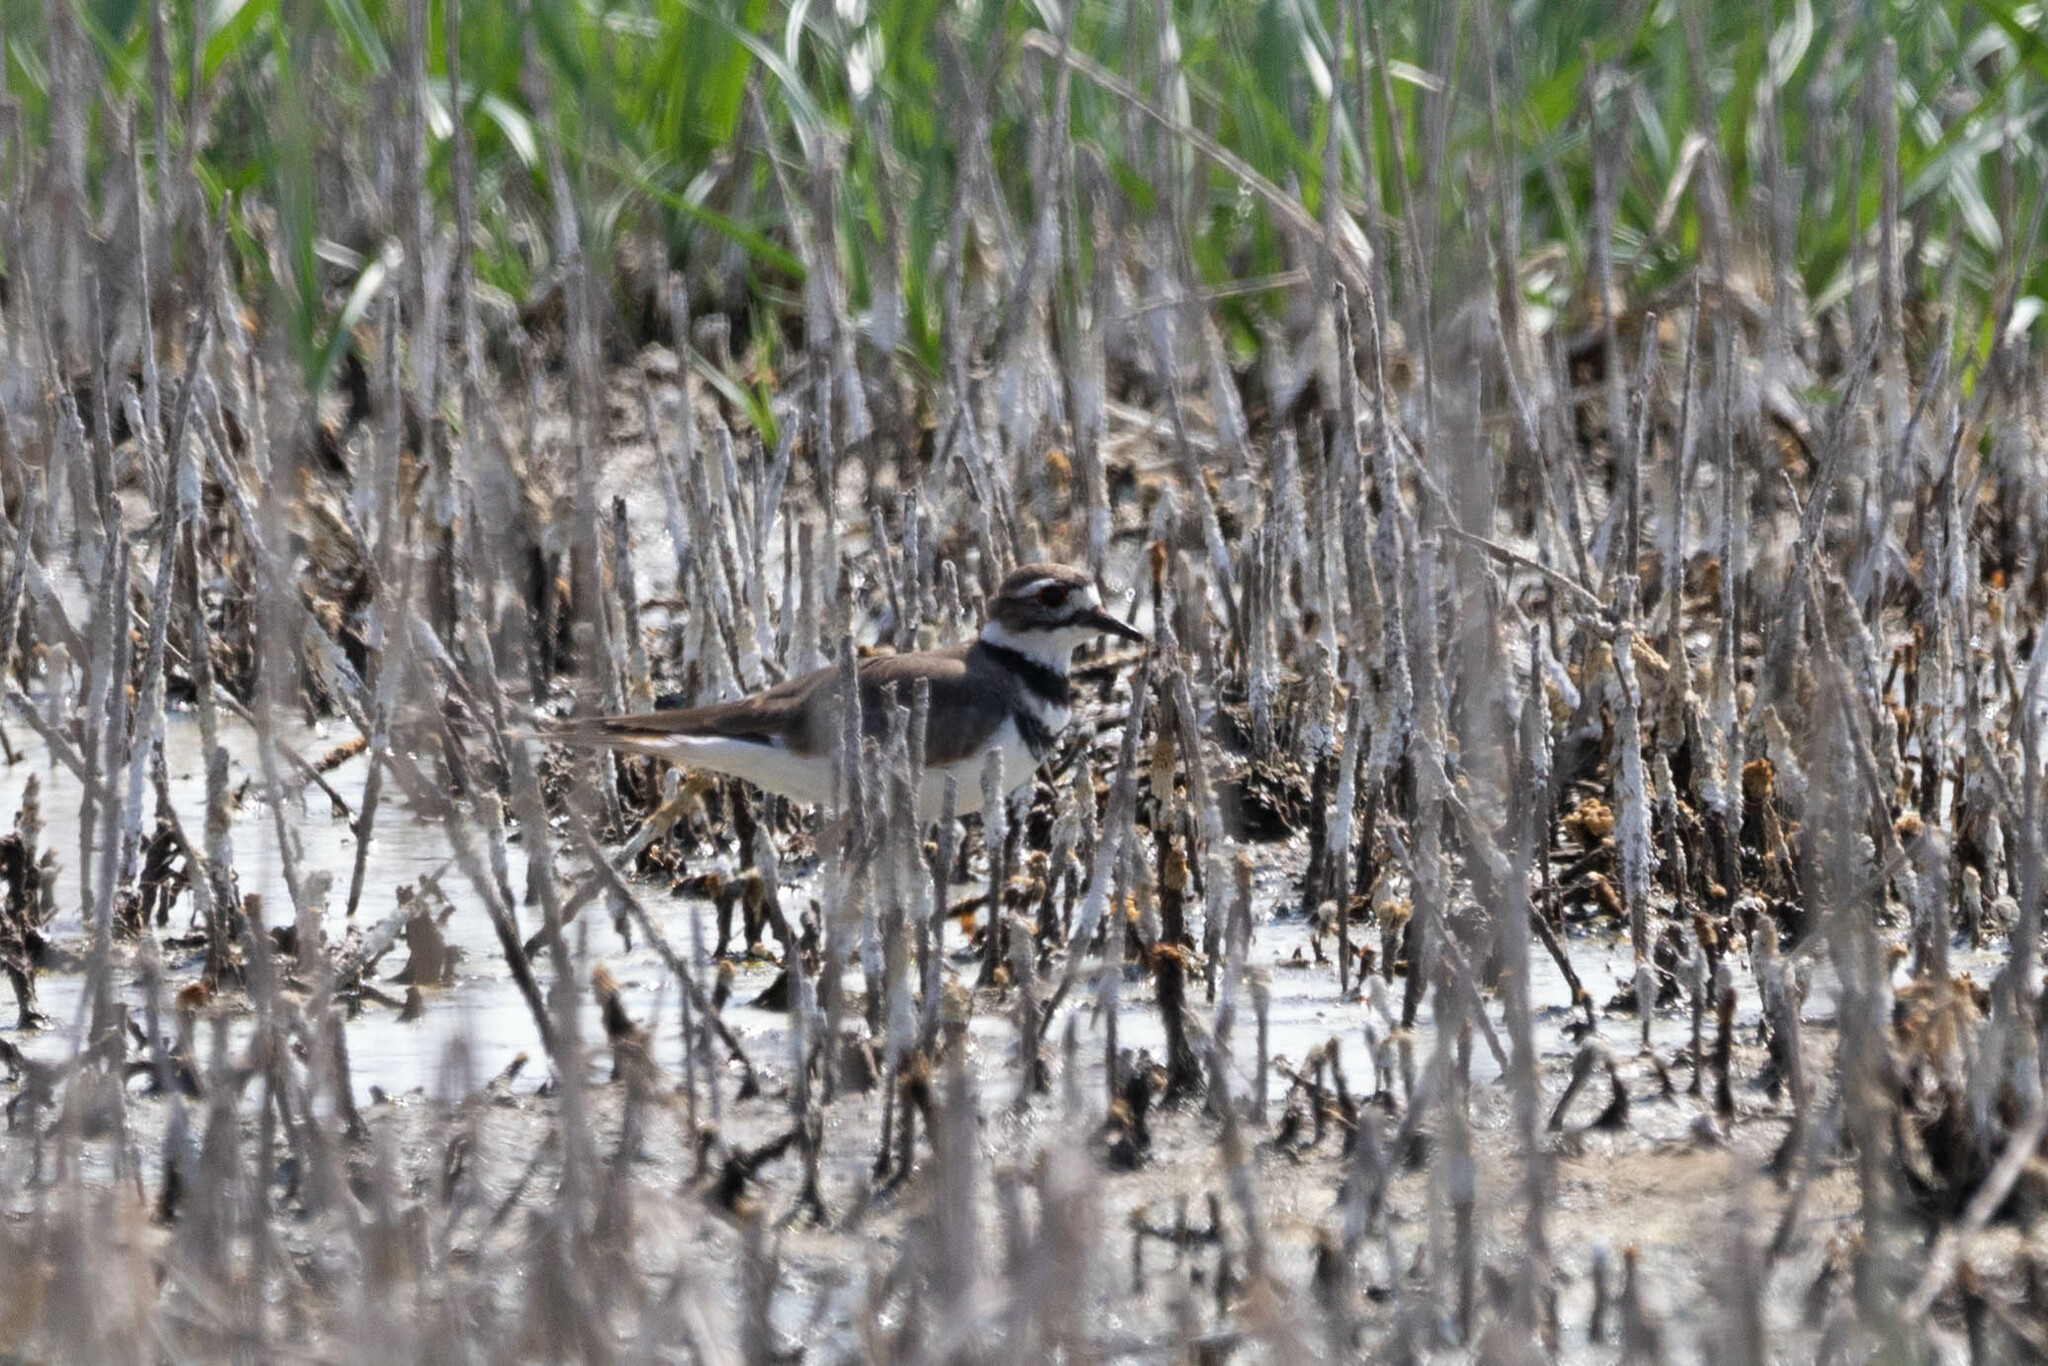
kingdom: Animalia
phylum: Chordata
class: Aves
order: Charadriiformes
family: Charadriidae
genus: Charadrius
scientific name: Charadrius vociferus
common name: Killdeer
